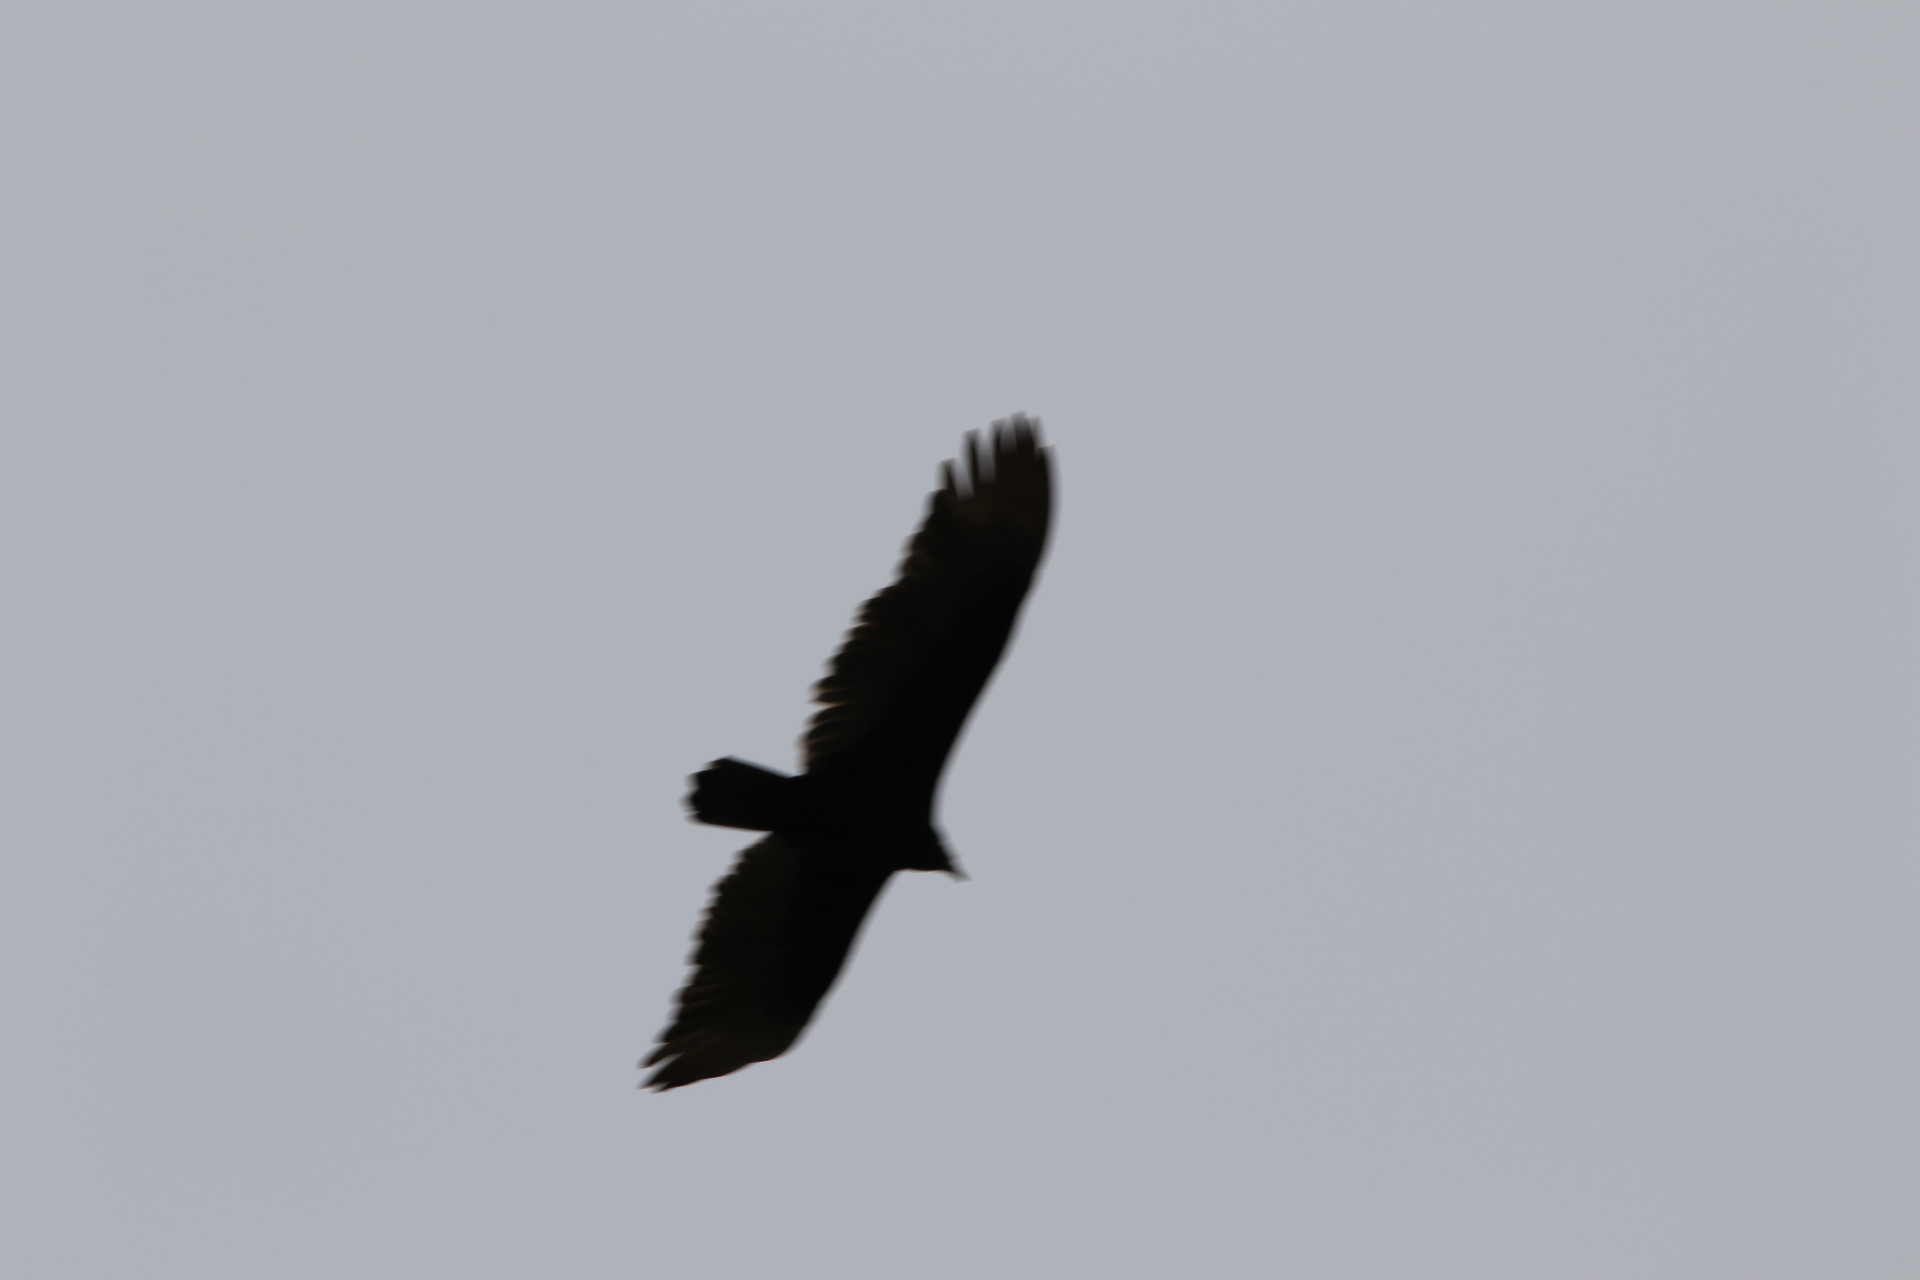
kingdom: Animalia
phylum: Chordata
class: Aves
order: Accipitriformes
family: Cathartidae
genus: Cathartes
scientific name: Cathartes aura
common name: Turkey vulture
